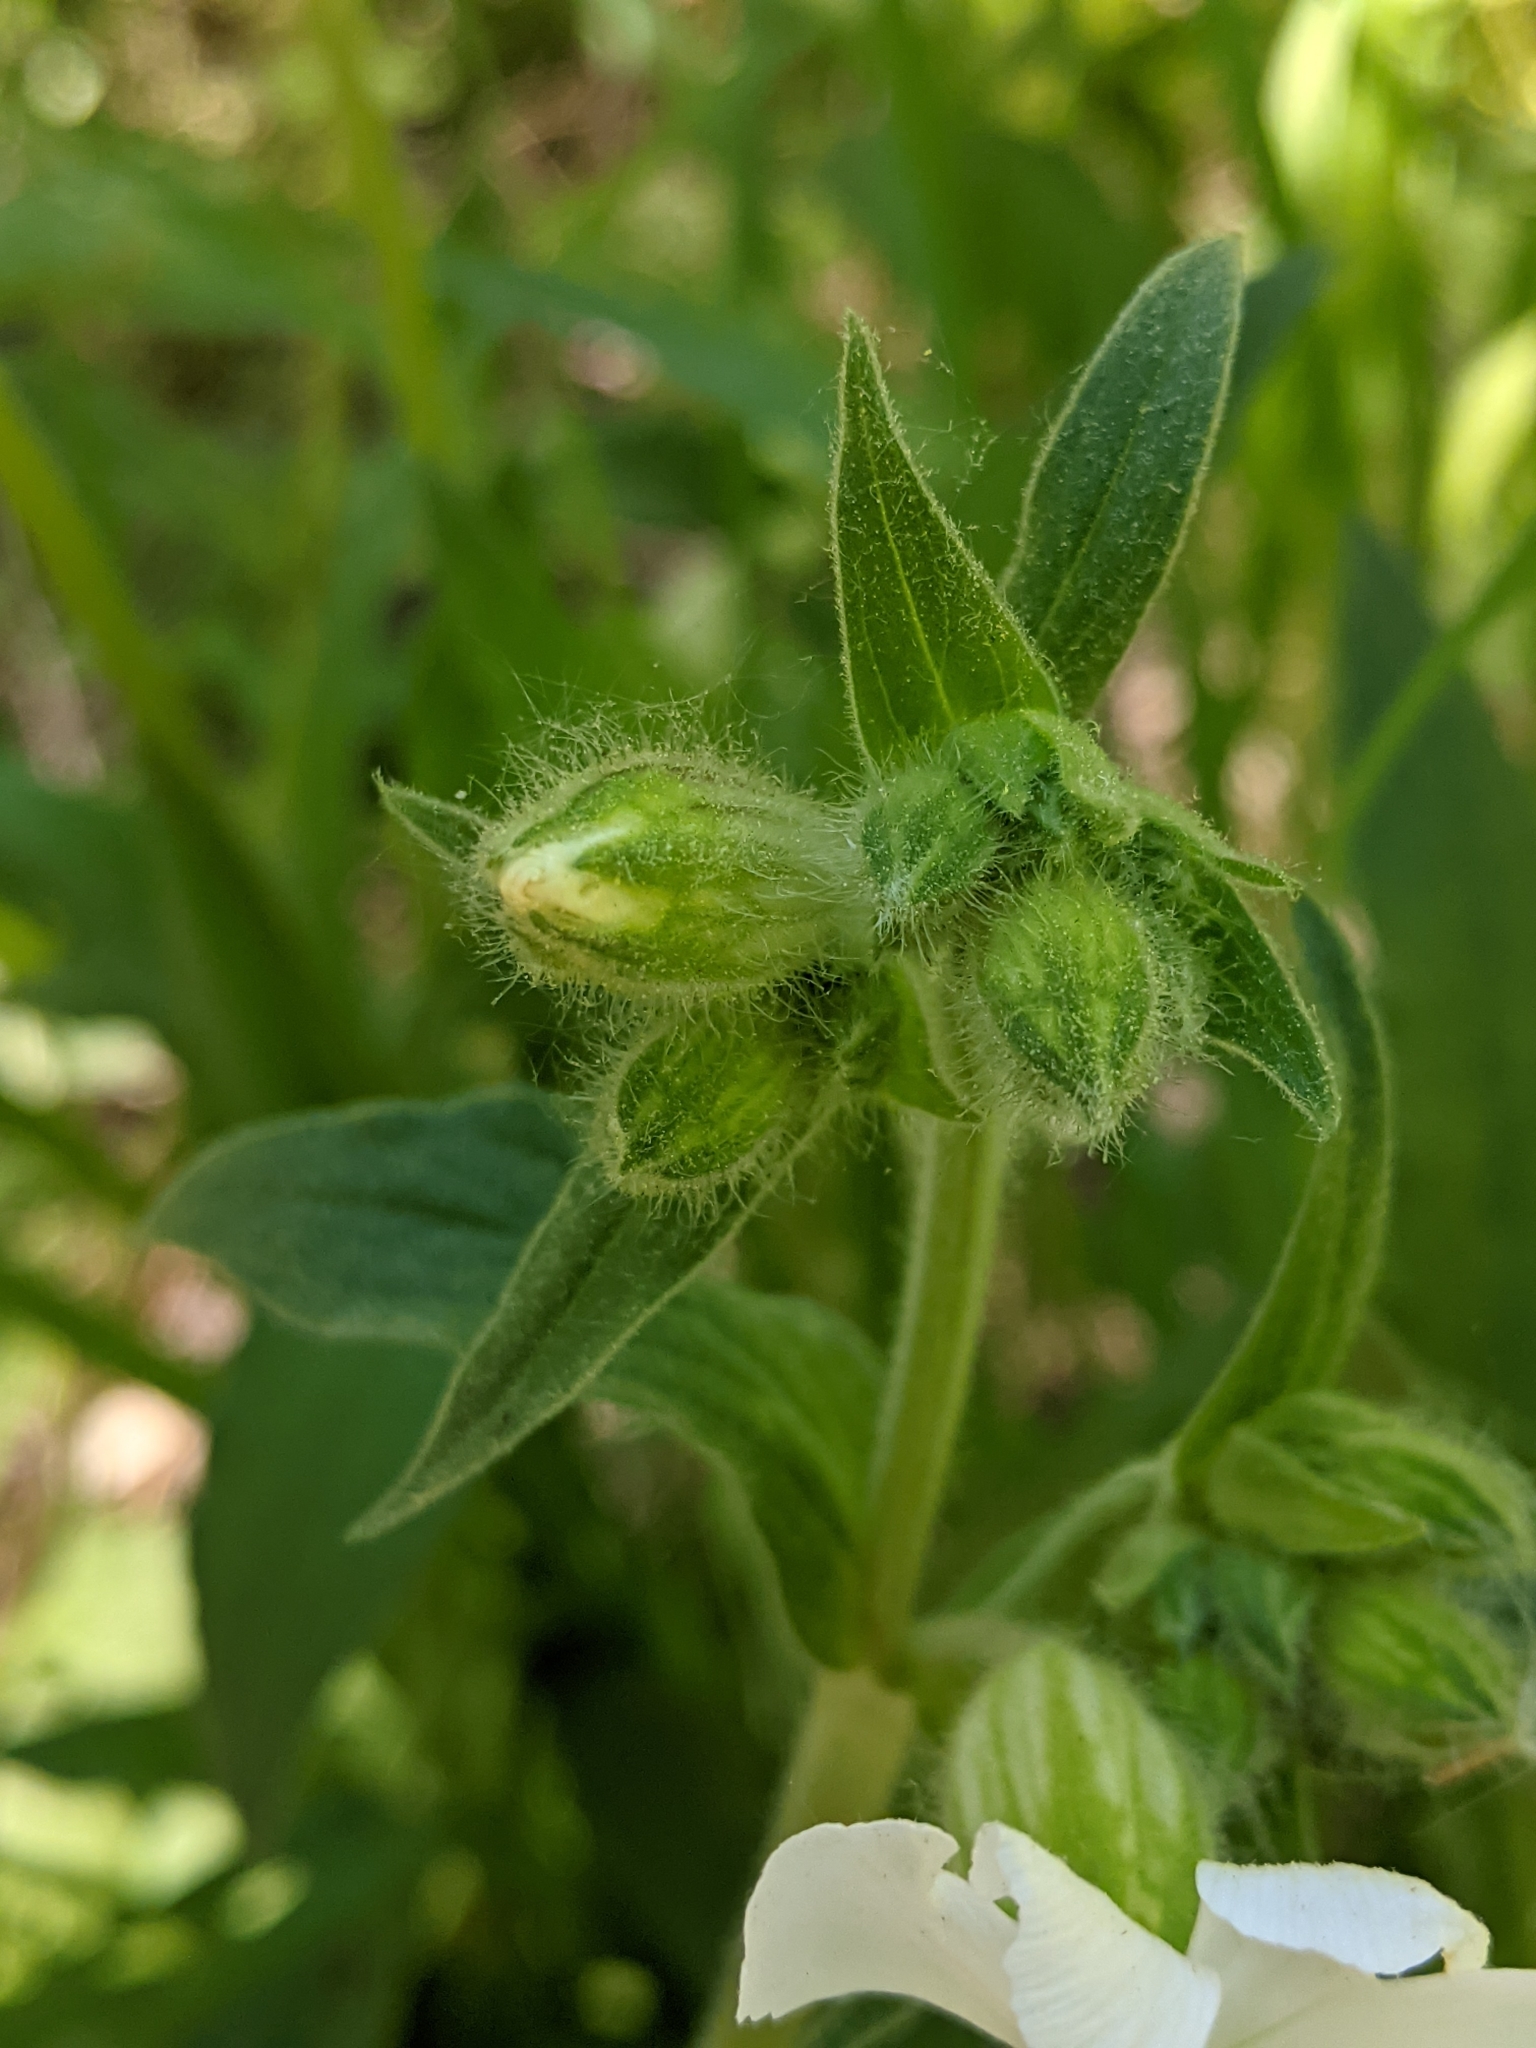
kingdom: Plantae
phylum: Tracheophyta
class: Magnoliopsida
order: Caryophyllales
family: Caryophyllaceae
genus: Silene
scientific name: Silene latifolia
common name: White campion
